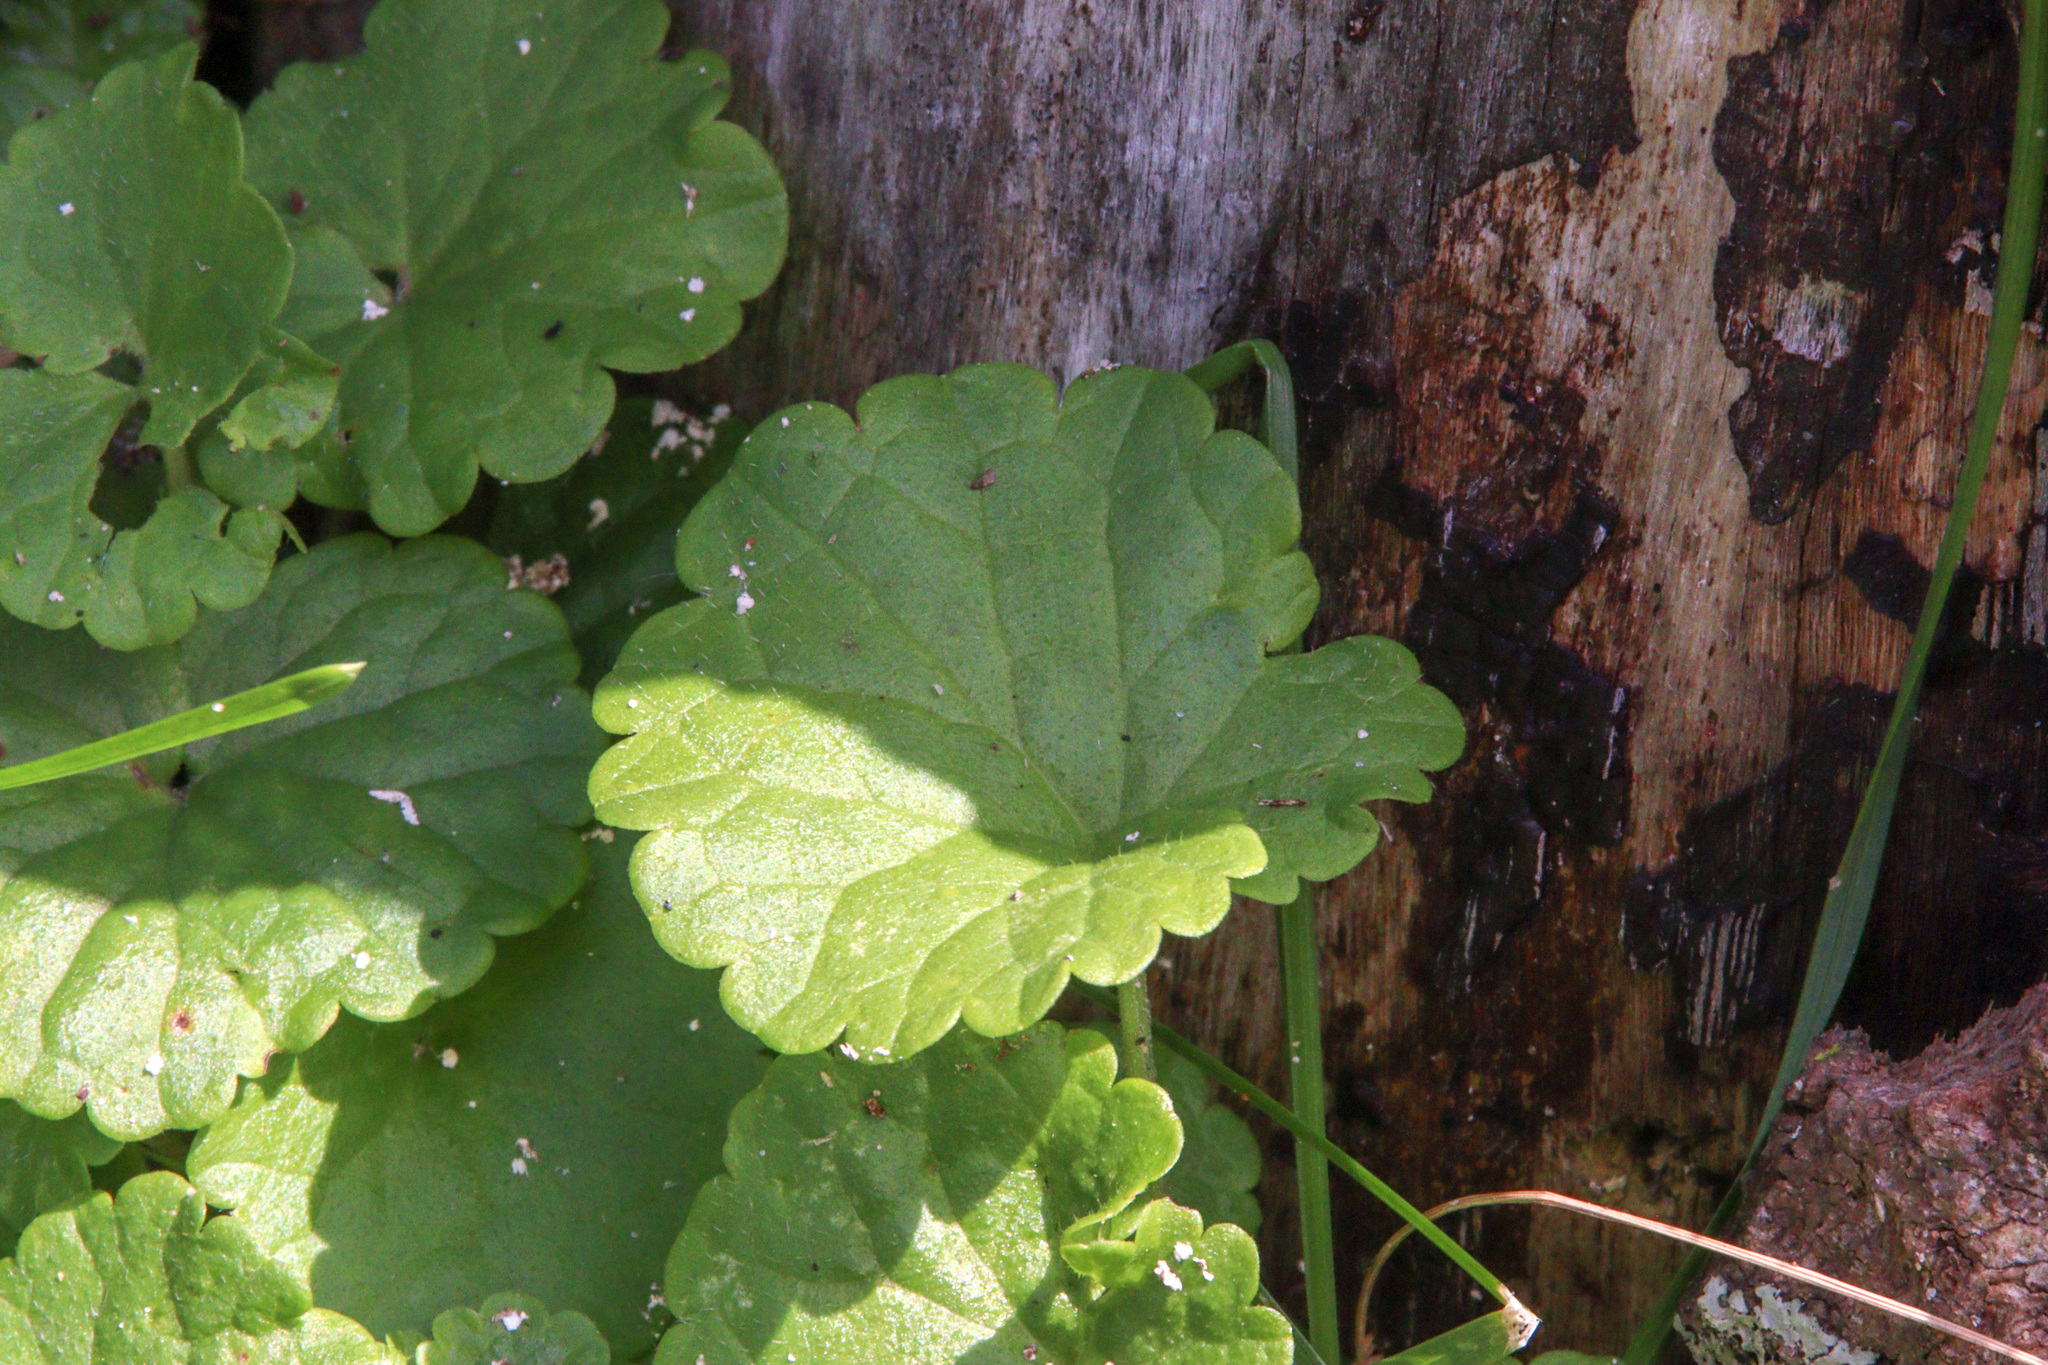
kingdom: Plantae
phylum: Tracheophyta
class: Magnoliopsida
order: Lamiales
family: Lamiaceae
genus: Glechoma
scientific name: Glechoma hederacea
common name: Ground ivy
